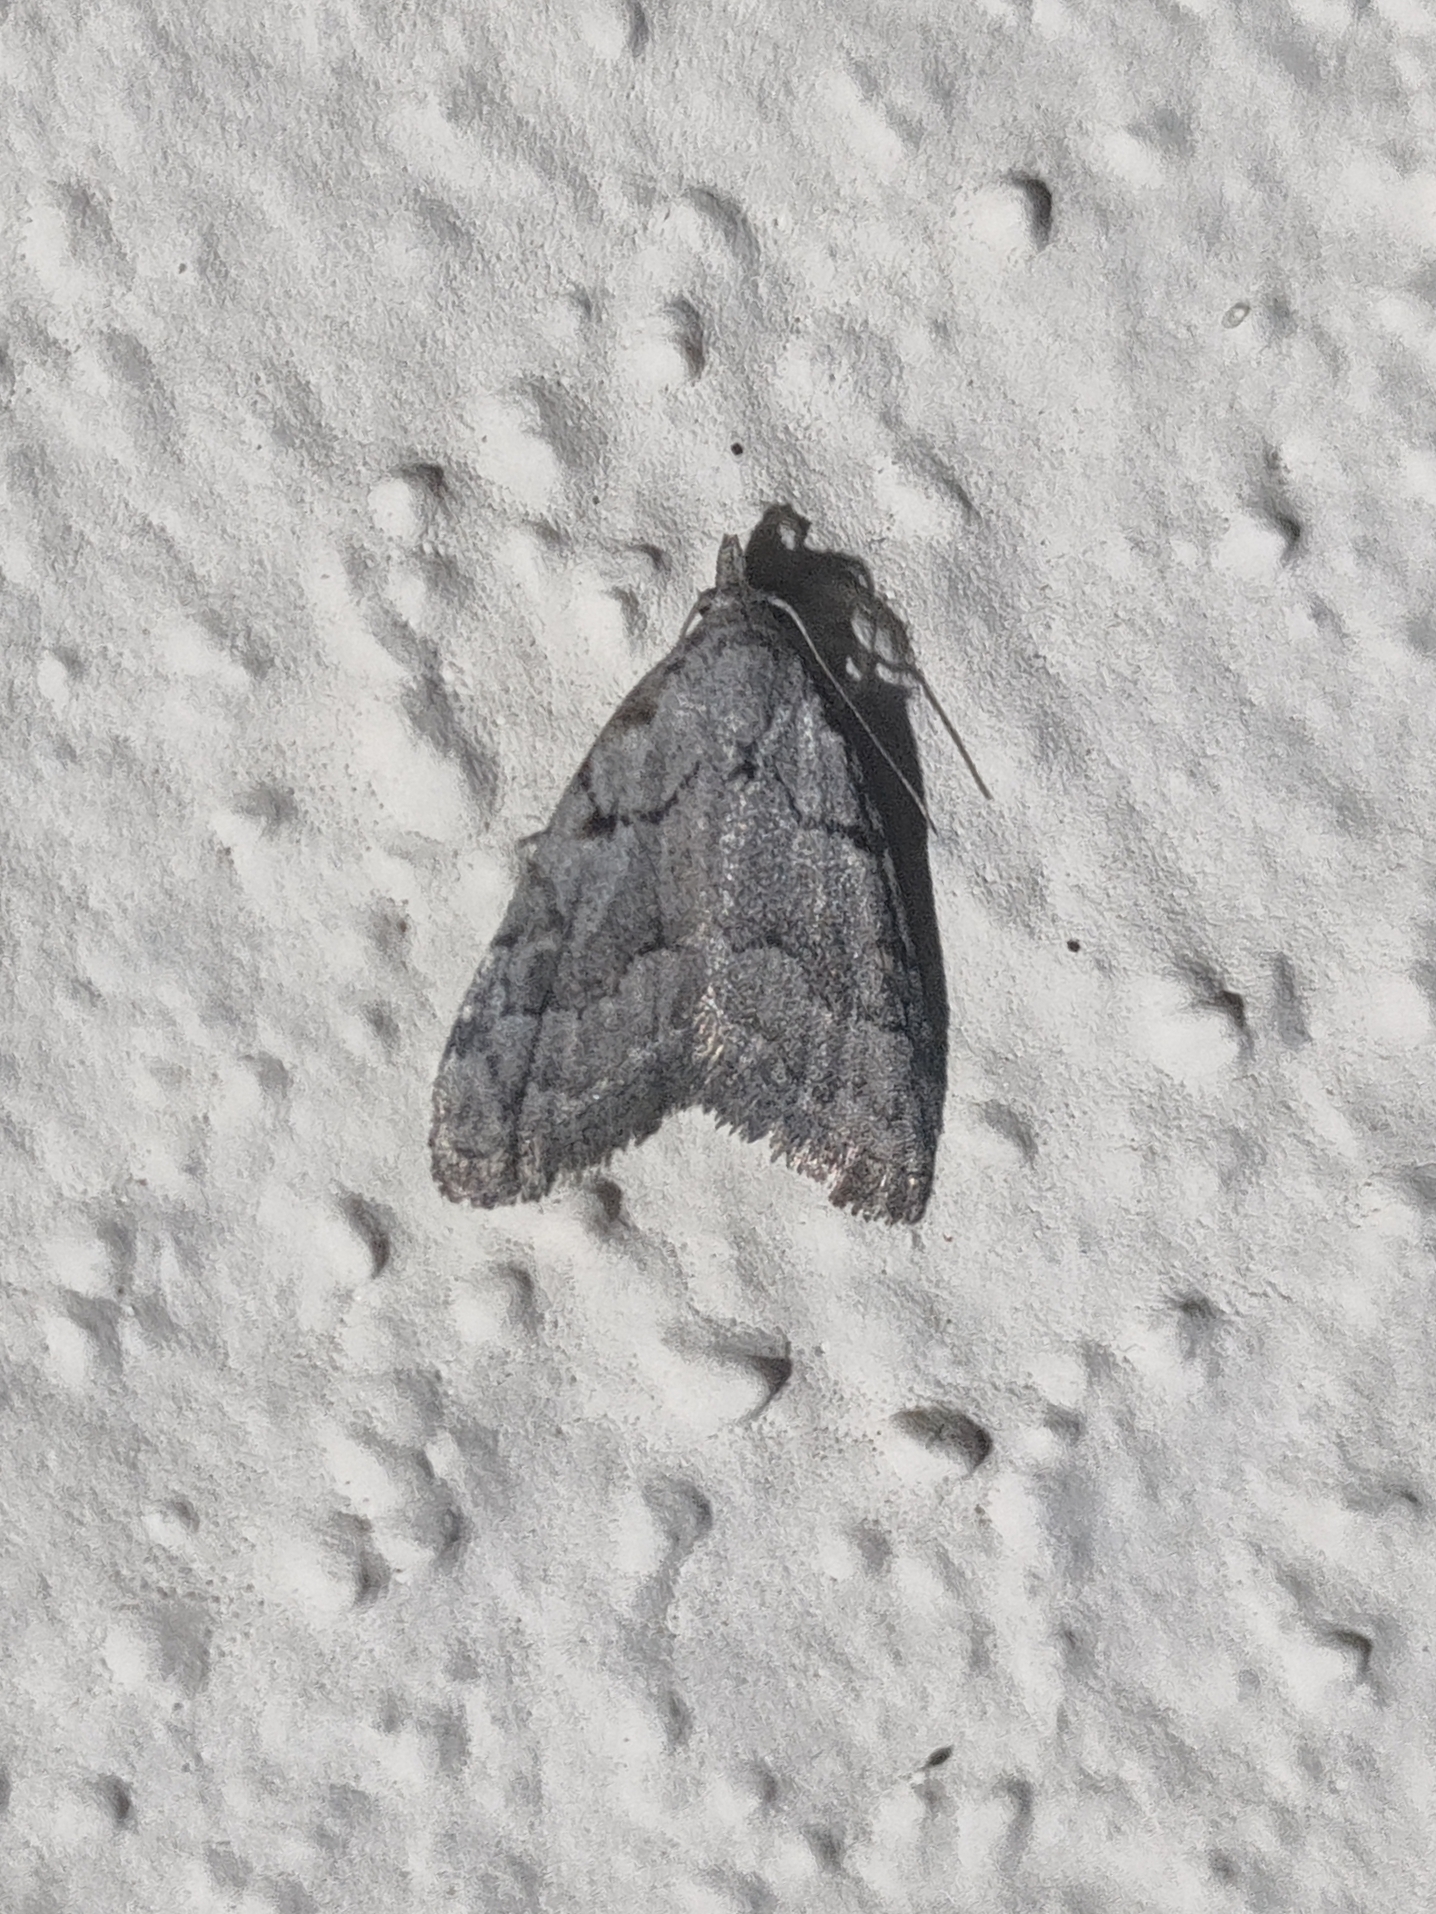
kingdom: Animalia
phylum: Arthropoda
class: Insecta
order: Lepidoptera
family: Nolidae
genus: Nola
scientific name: Nola thymula
